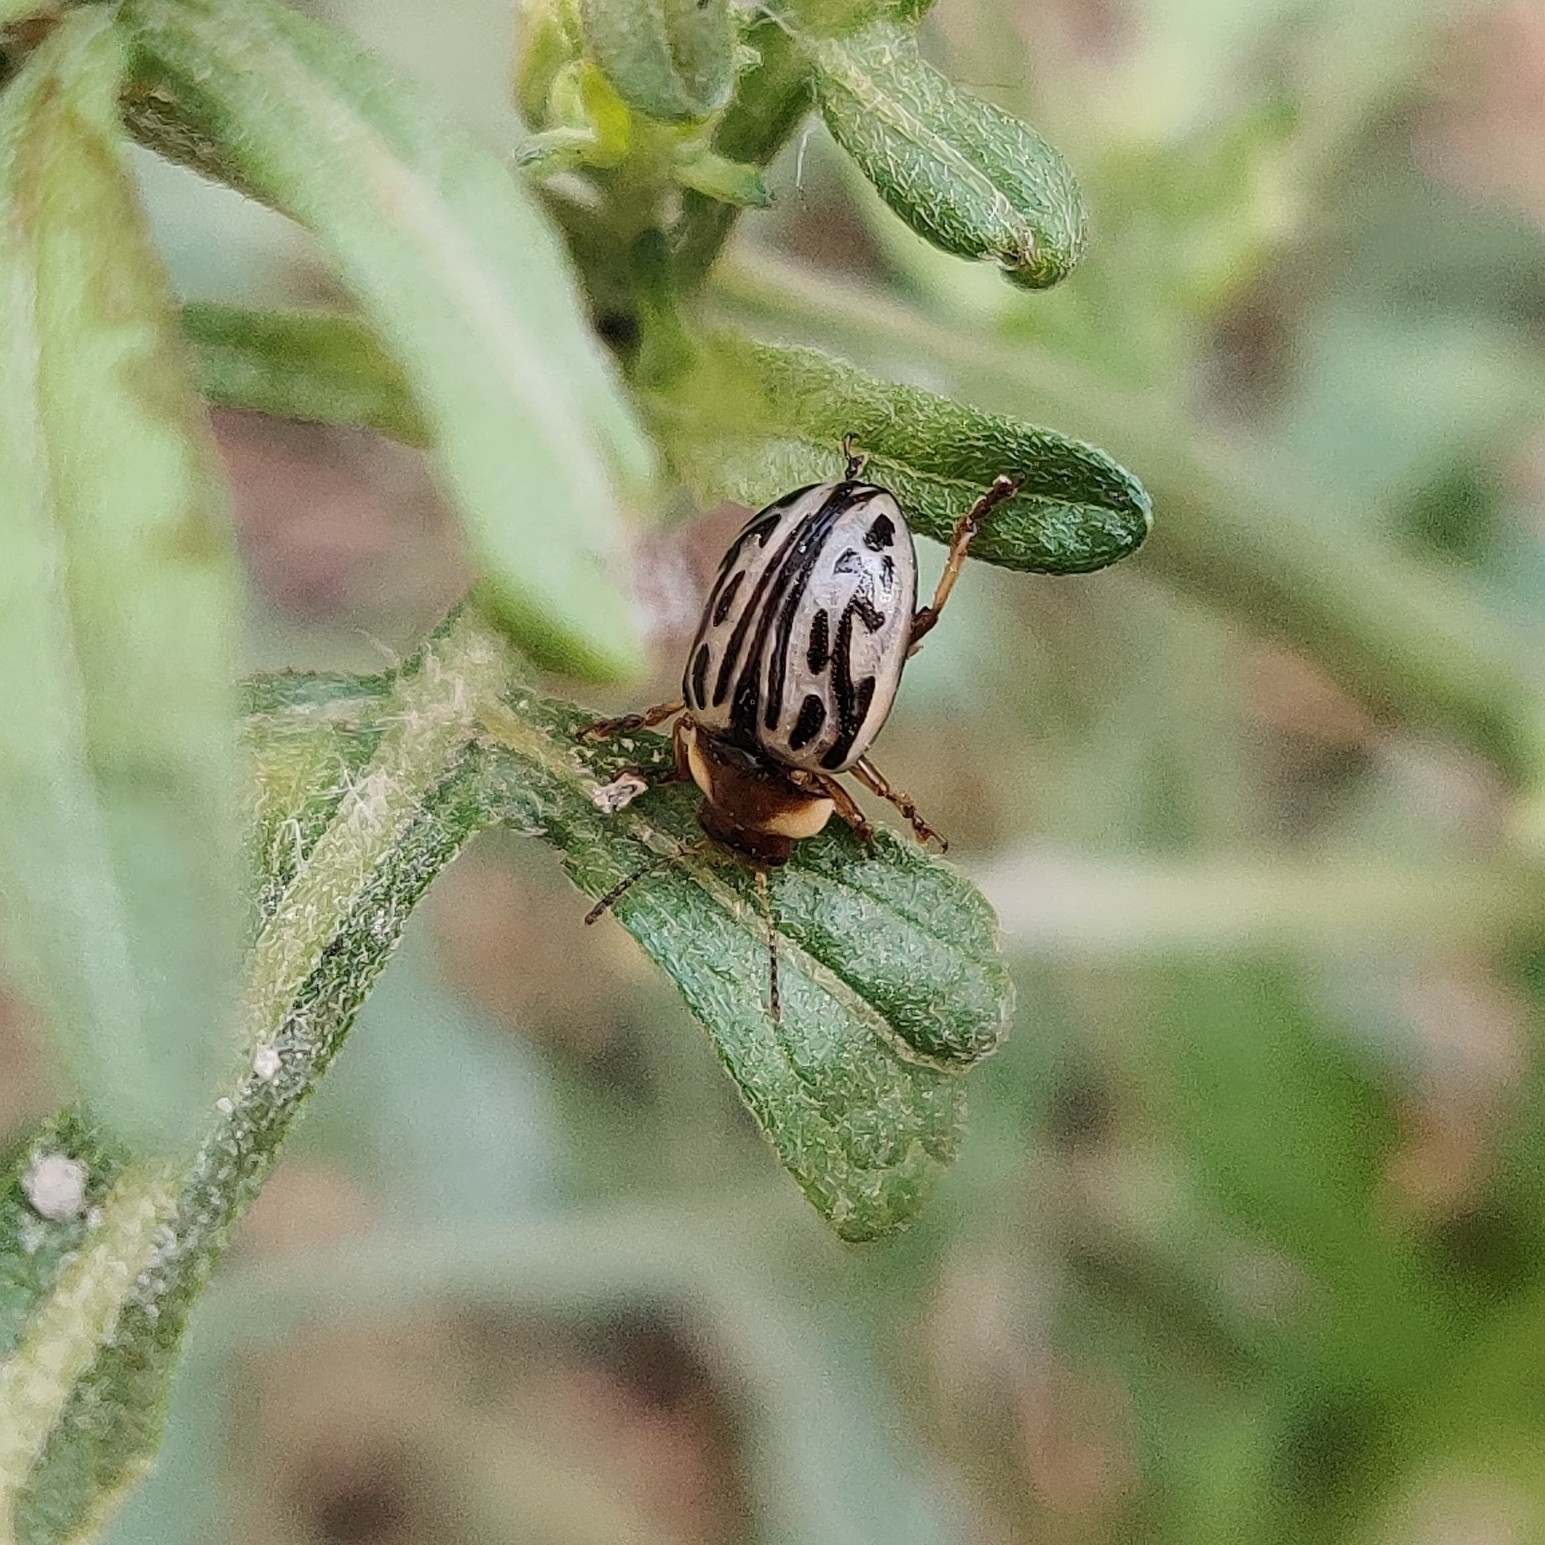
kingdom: Animalia
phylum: Arthropoda
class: Insecta
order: Coleoptera
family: Chrysomelidae
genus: Calligrapha
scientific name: Calligrapha
